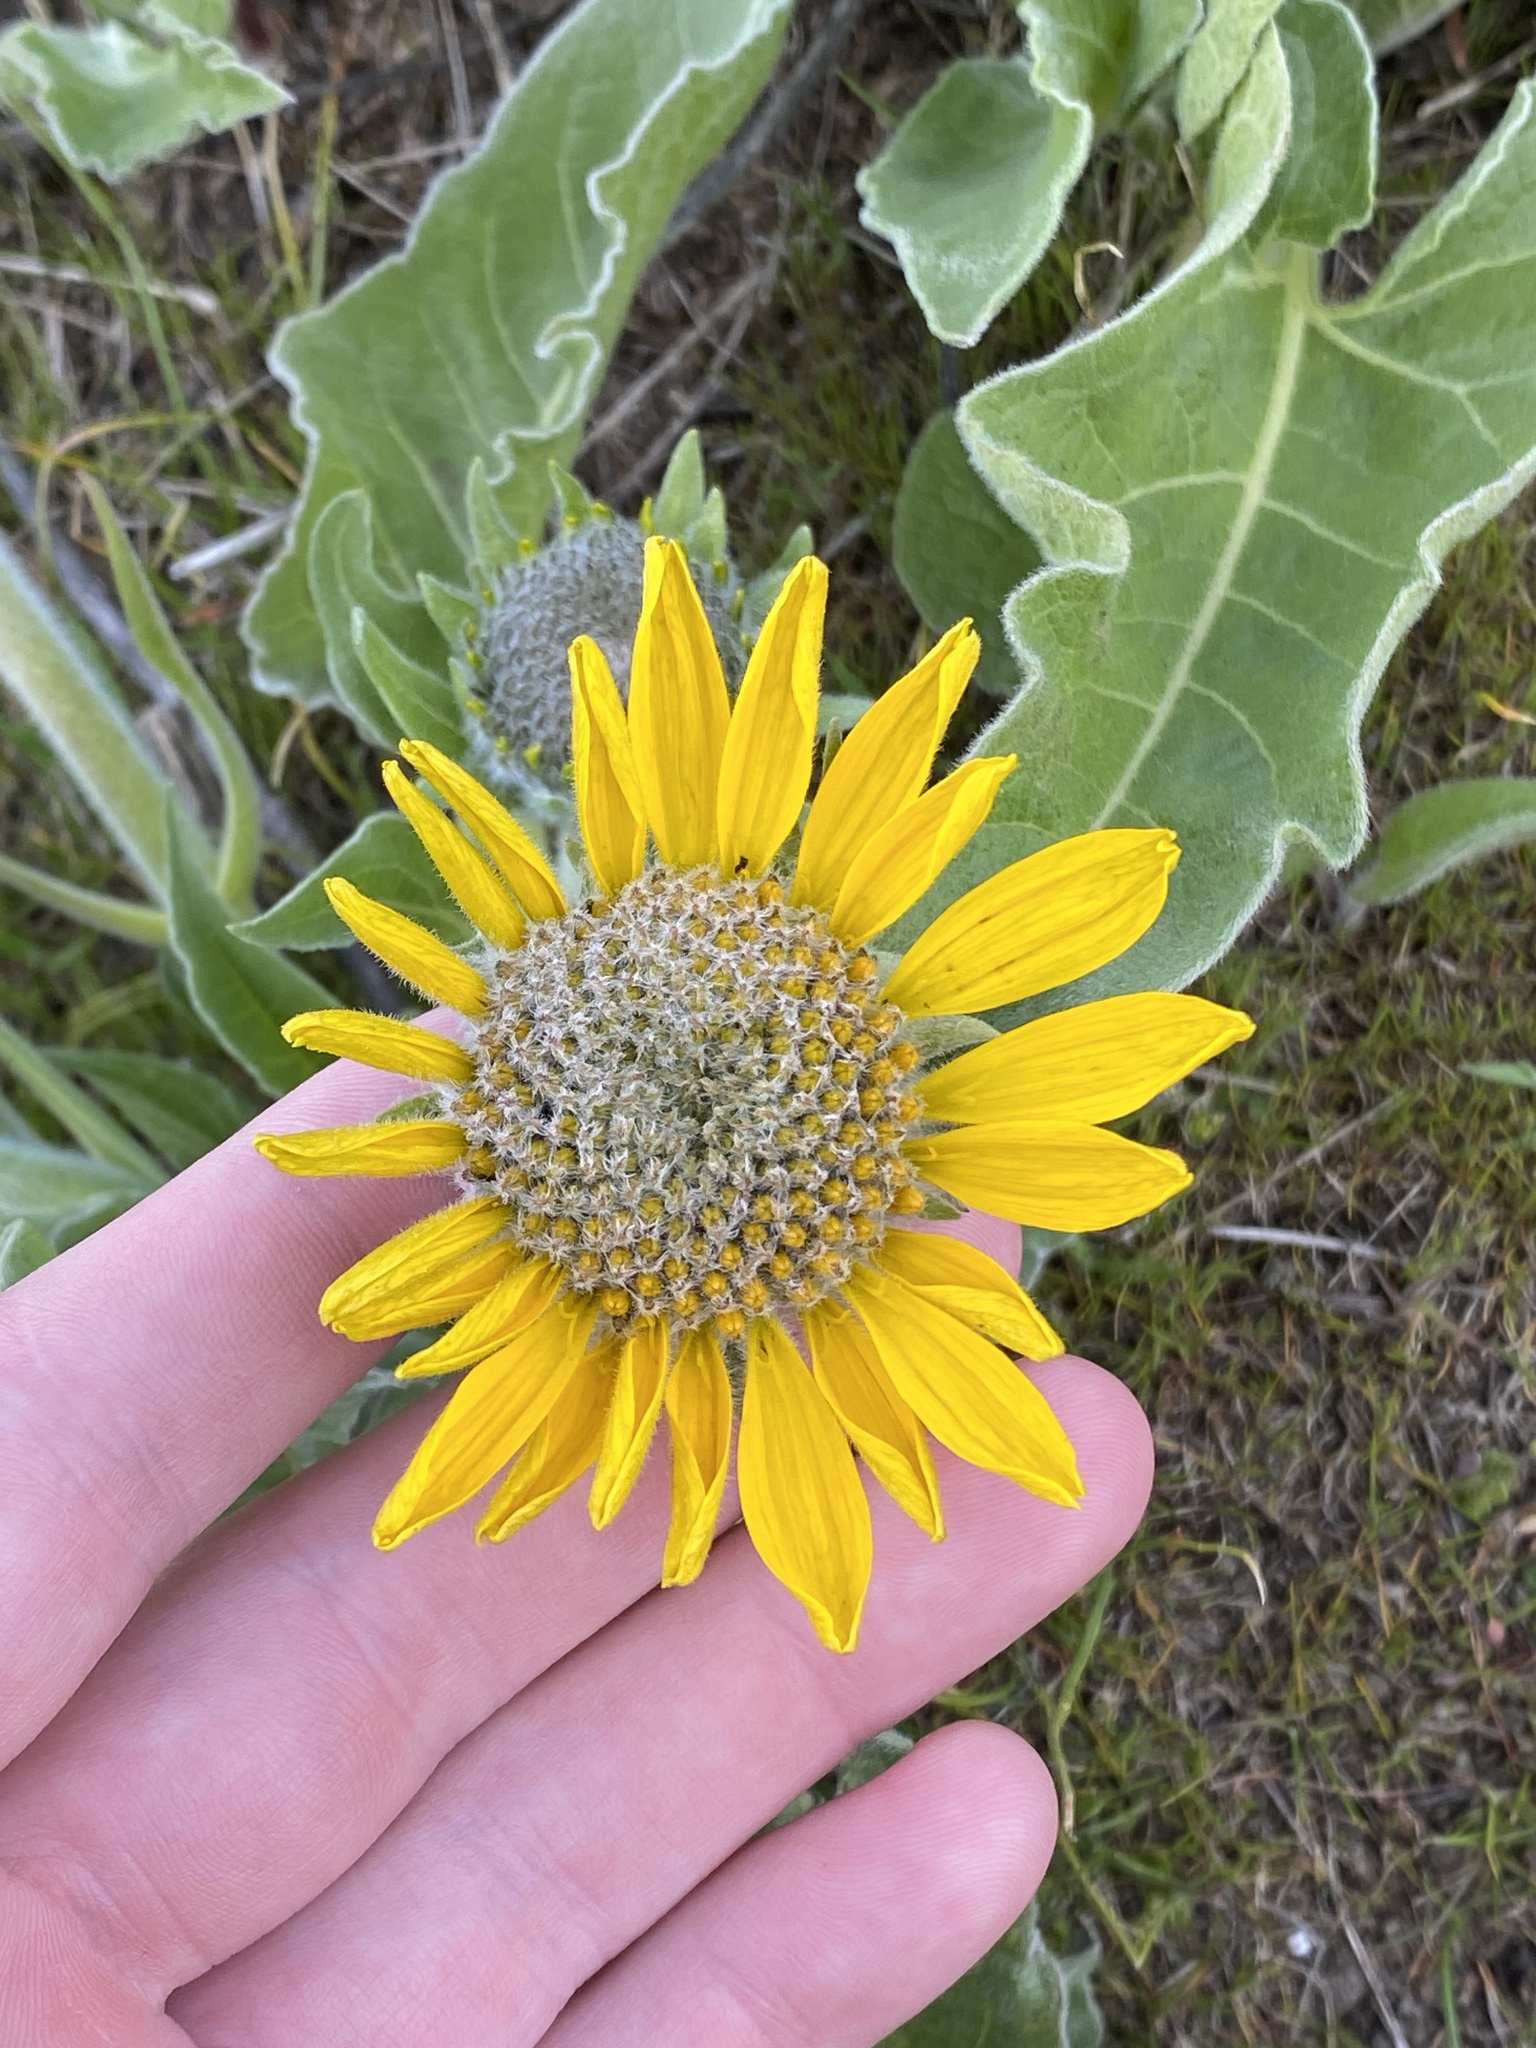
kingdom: Plantae
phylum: Tracheophyta
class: Magnoliopsida
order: Asterales
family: Asteraceae
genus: Wyethia
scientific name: Wyethia sagittata
